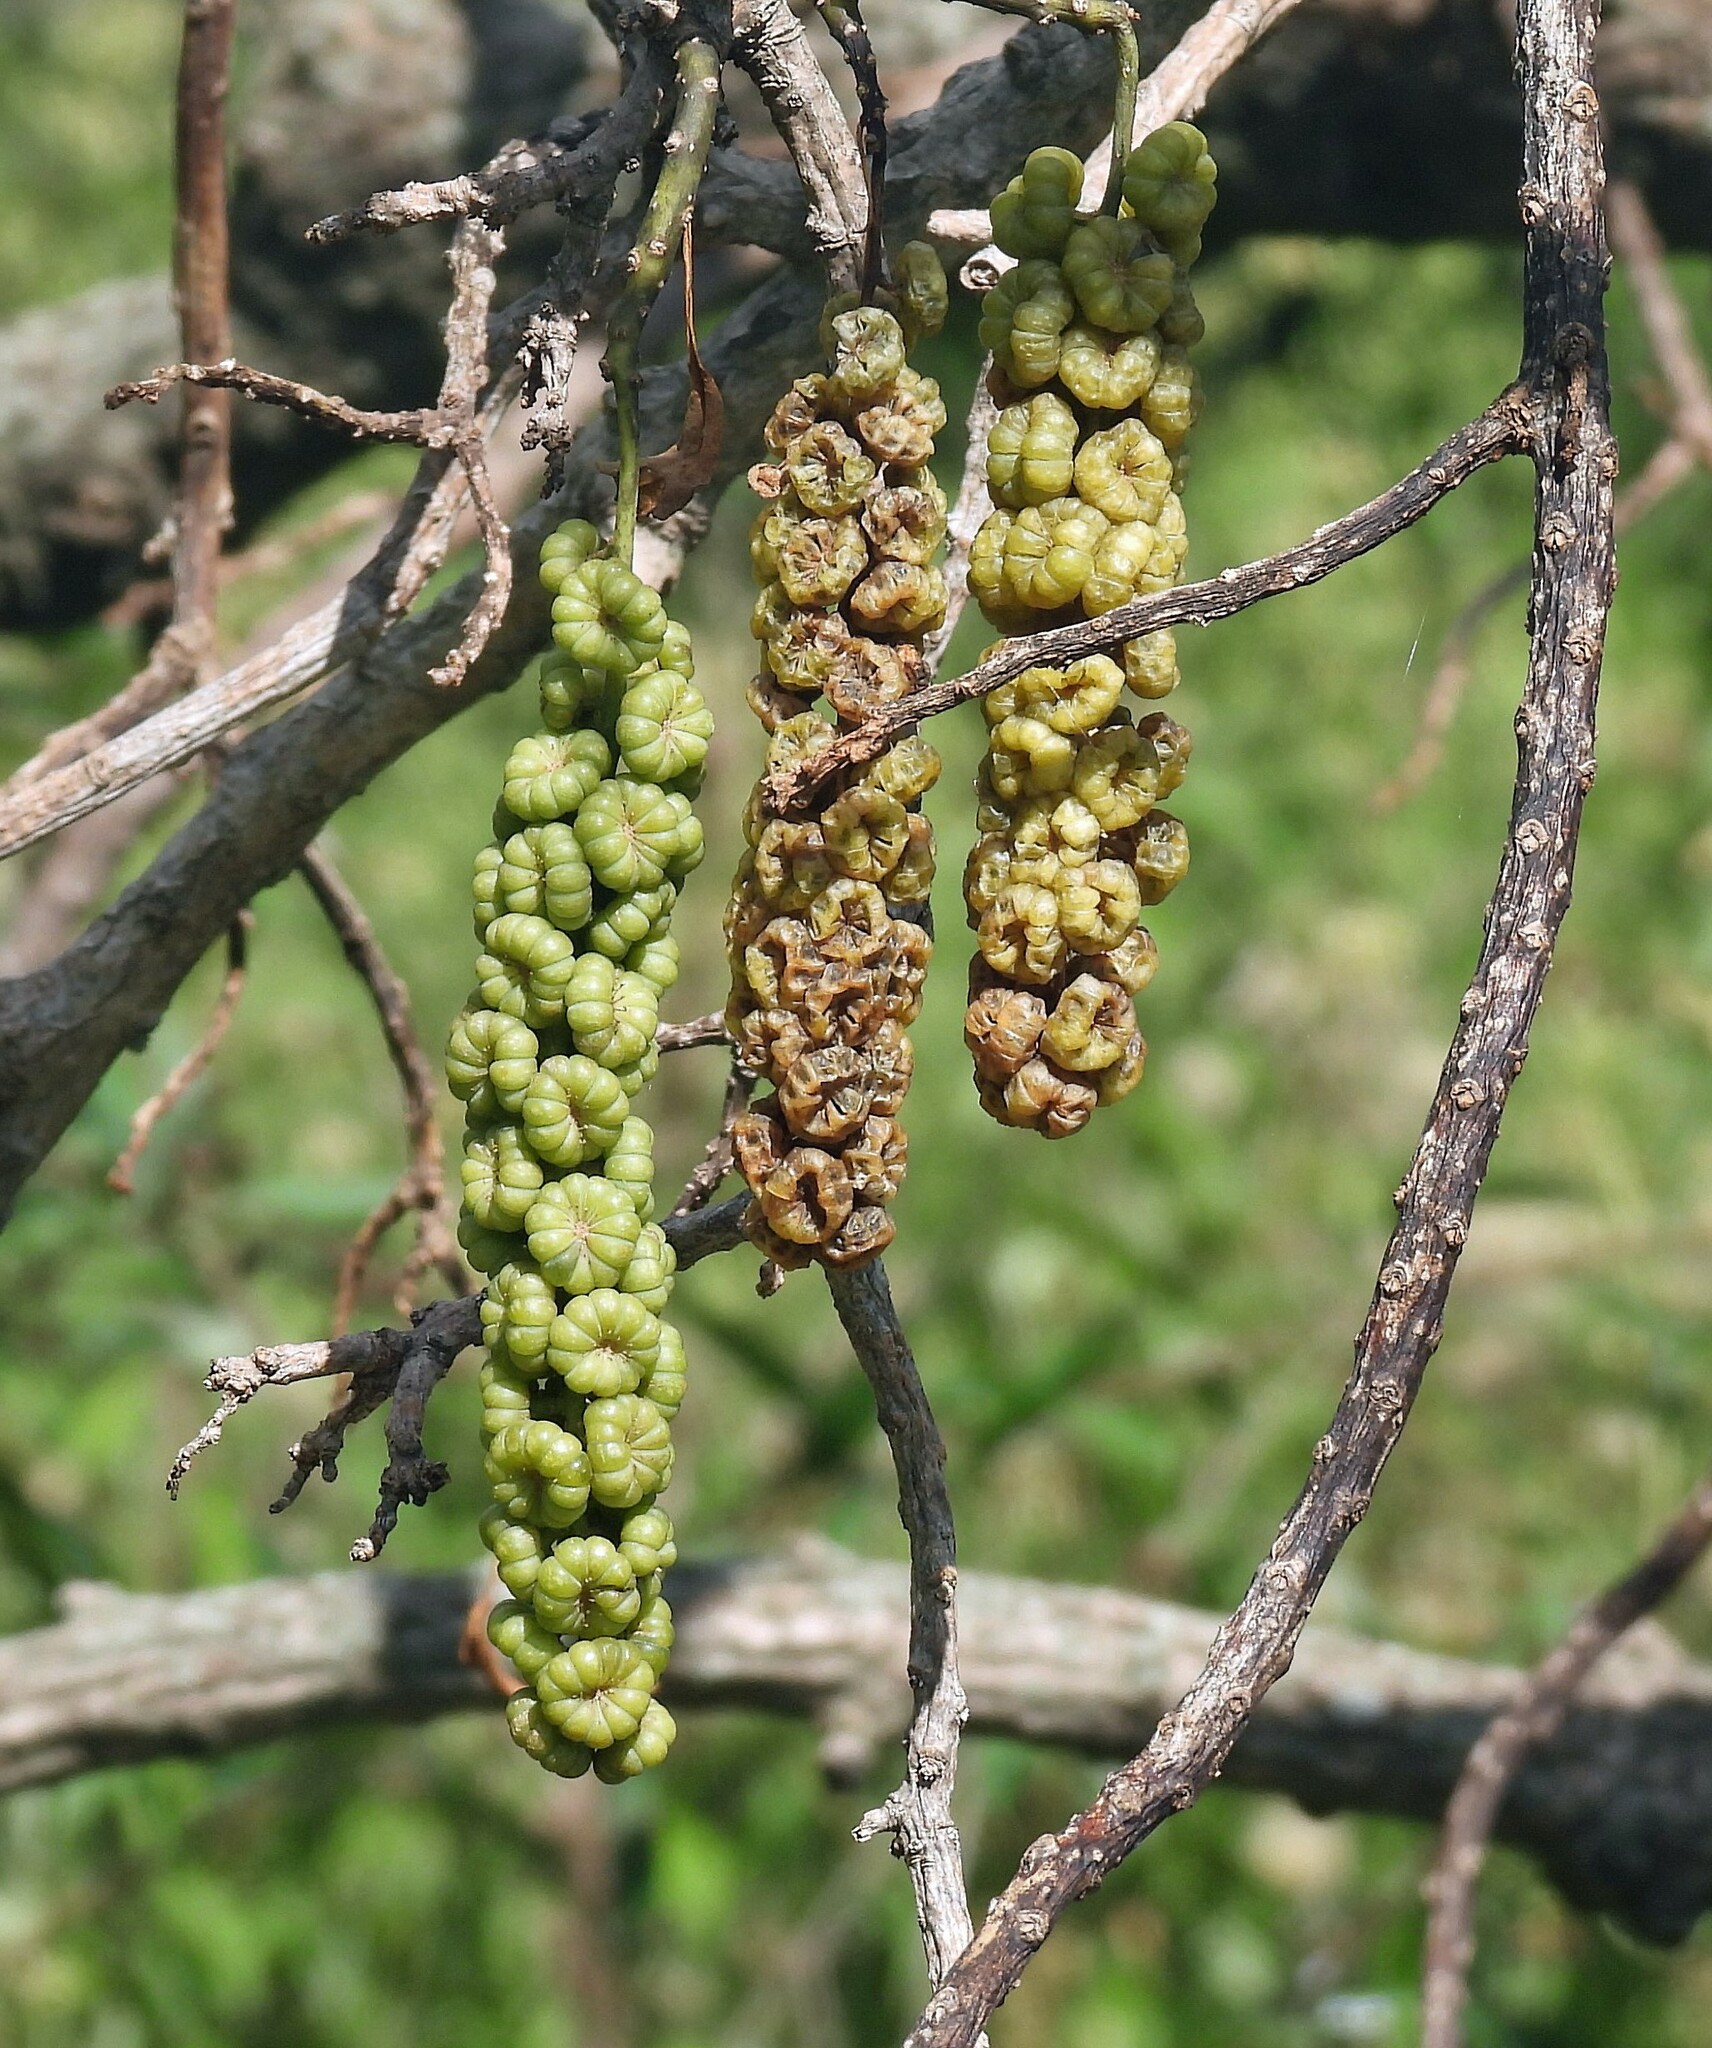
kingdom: Plantae
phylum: Tracheophyta
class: Magnoliopsida
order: Caryophyllales
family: Phytolaccaceae
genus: Phytolacca
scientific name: Phytolacca dioica
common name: Pokeweed
